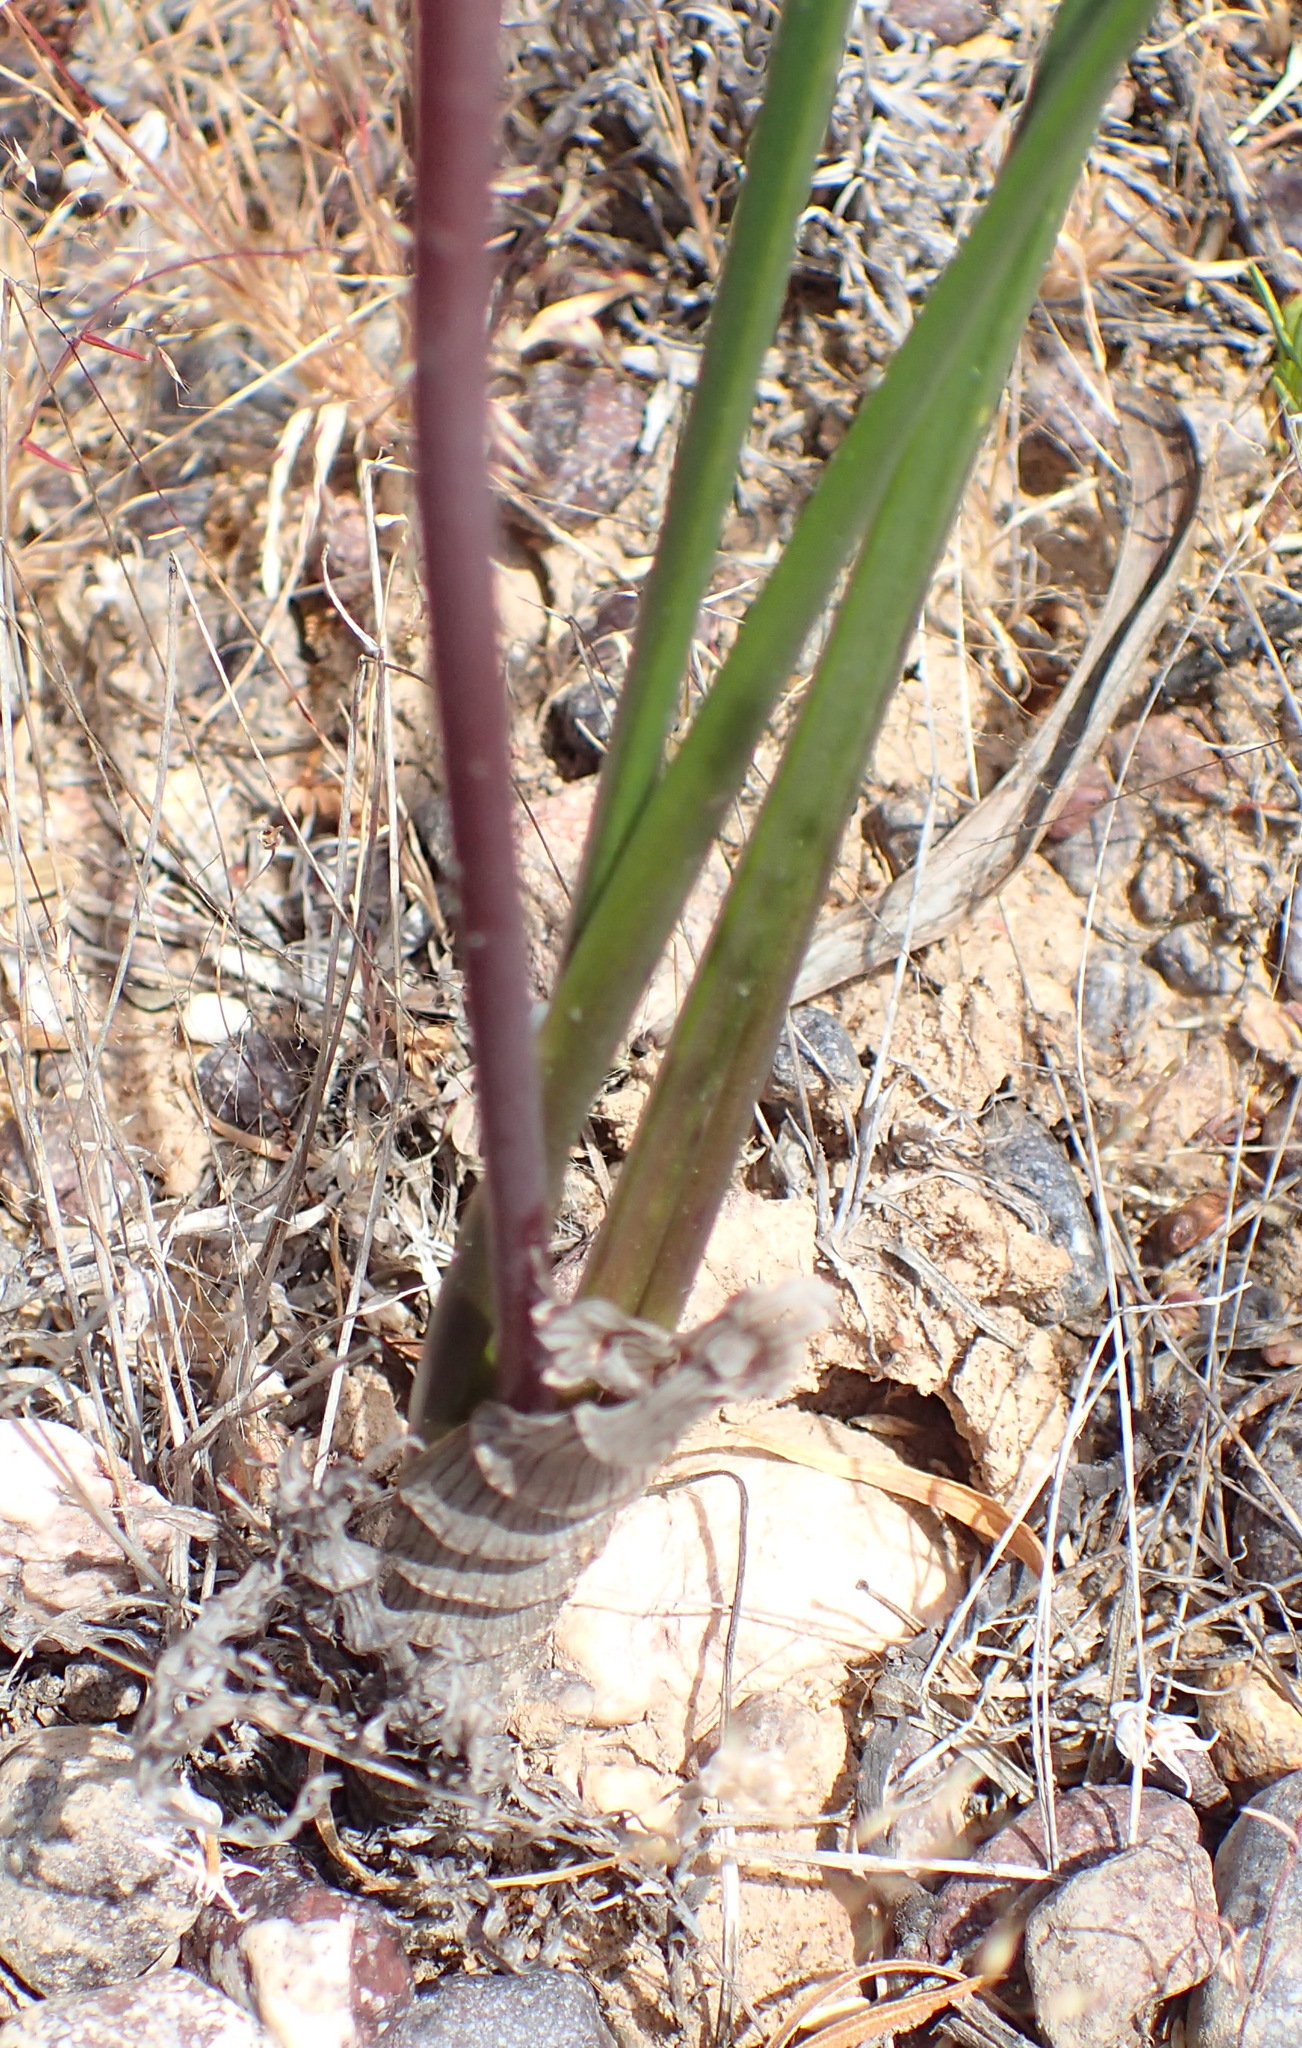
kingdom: Plantae
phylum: Tracheophyta
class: Liliopsida
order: Asparagales
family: Asparagaceae
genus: Drimia
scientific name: Drimia exuviata
